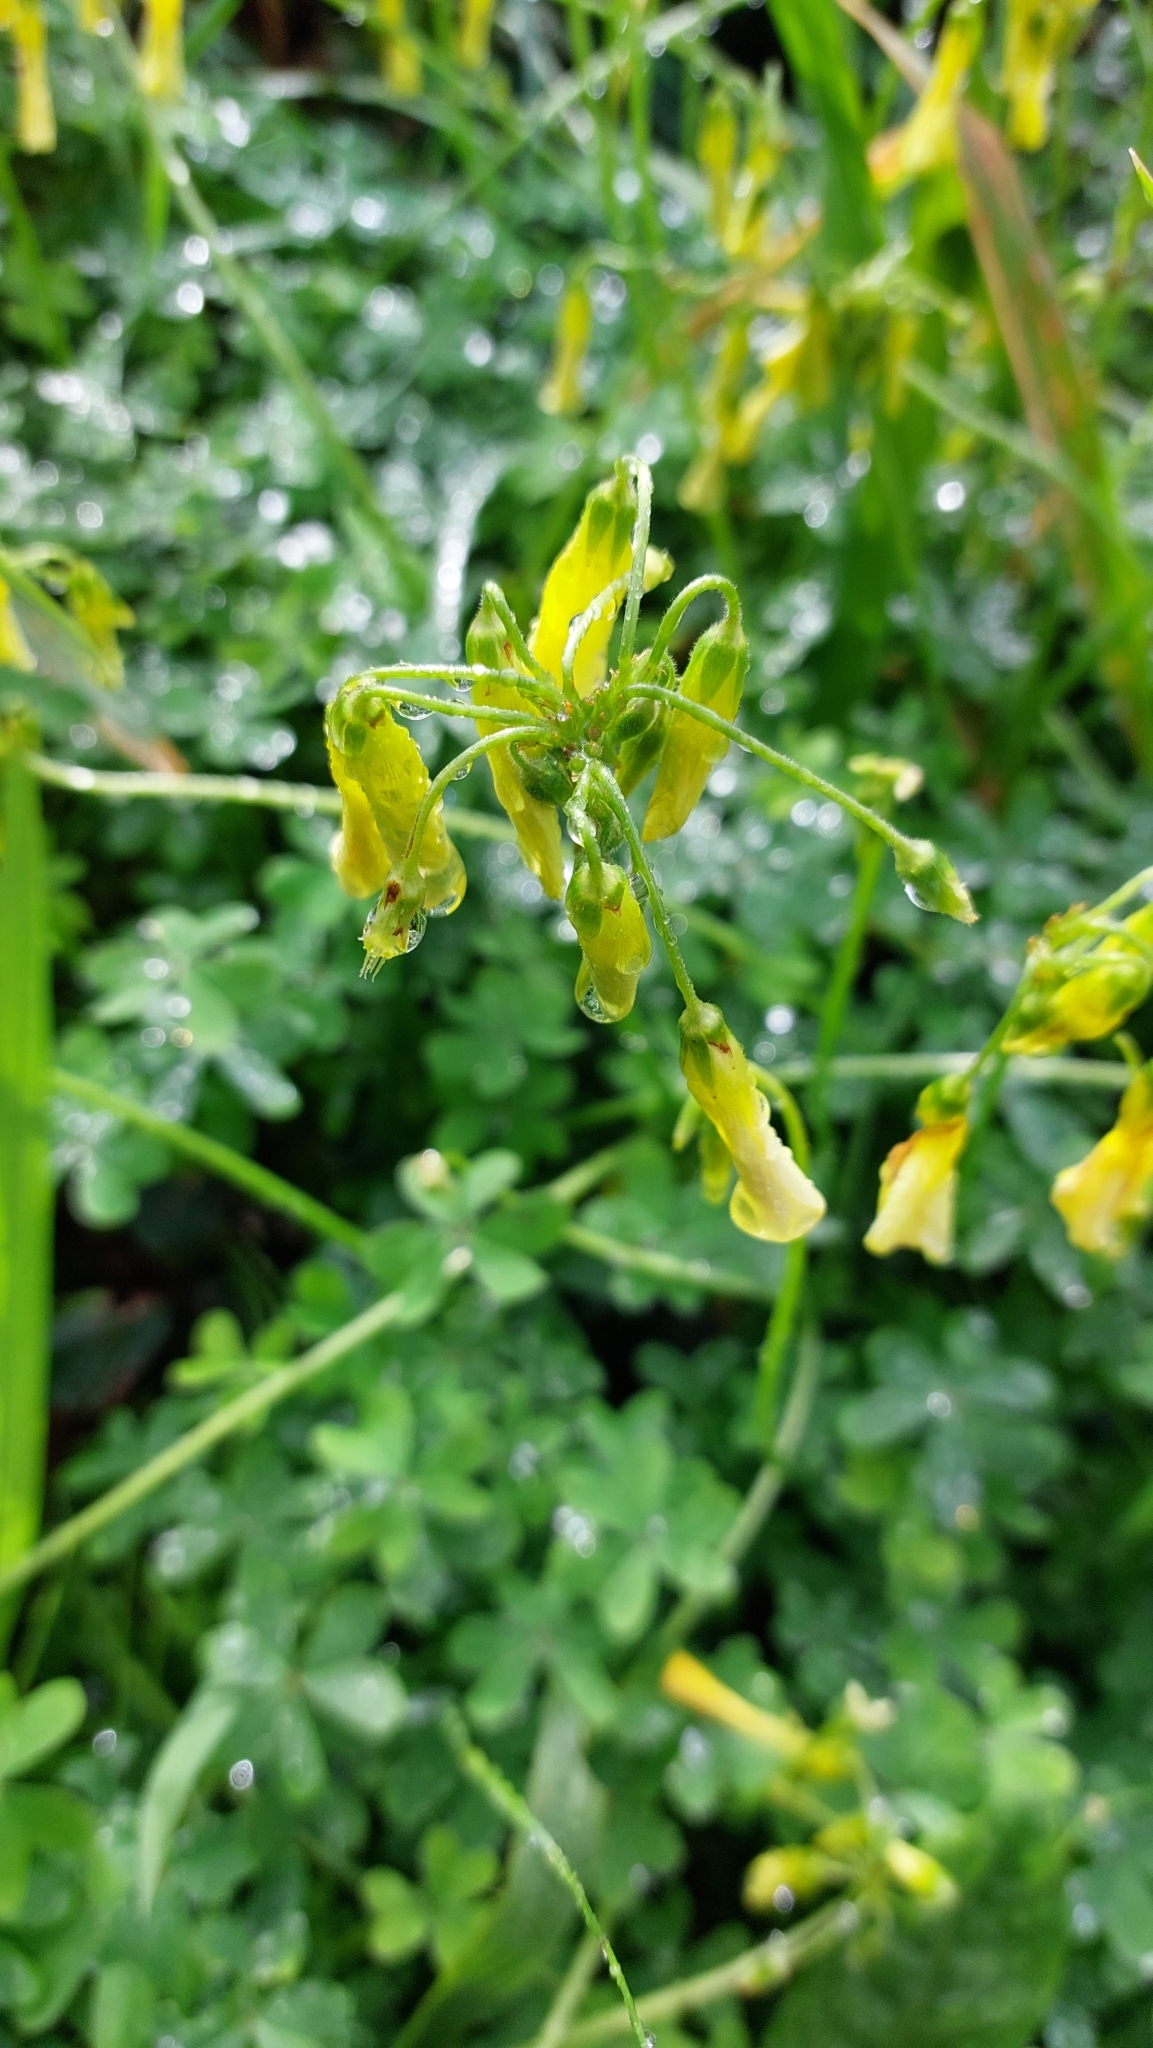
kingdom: Plantae
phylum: Tracheophyta
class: Magnoliopsida
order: Oxalidales
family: Oxalidaceae
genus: Oxalis
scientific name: Oxalis pes-caprae
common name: Bermuda-buttercup
